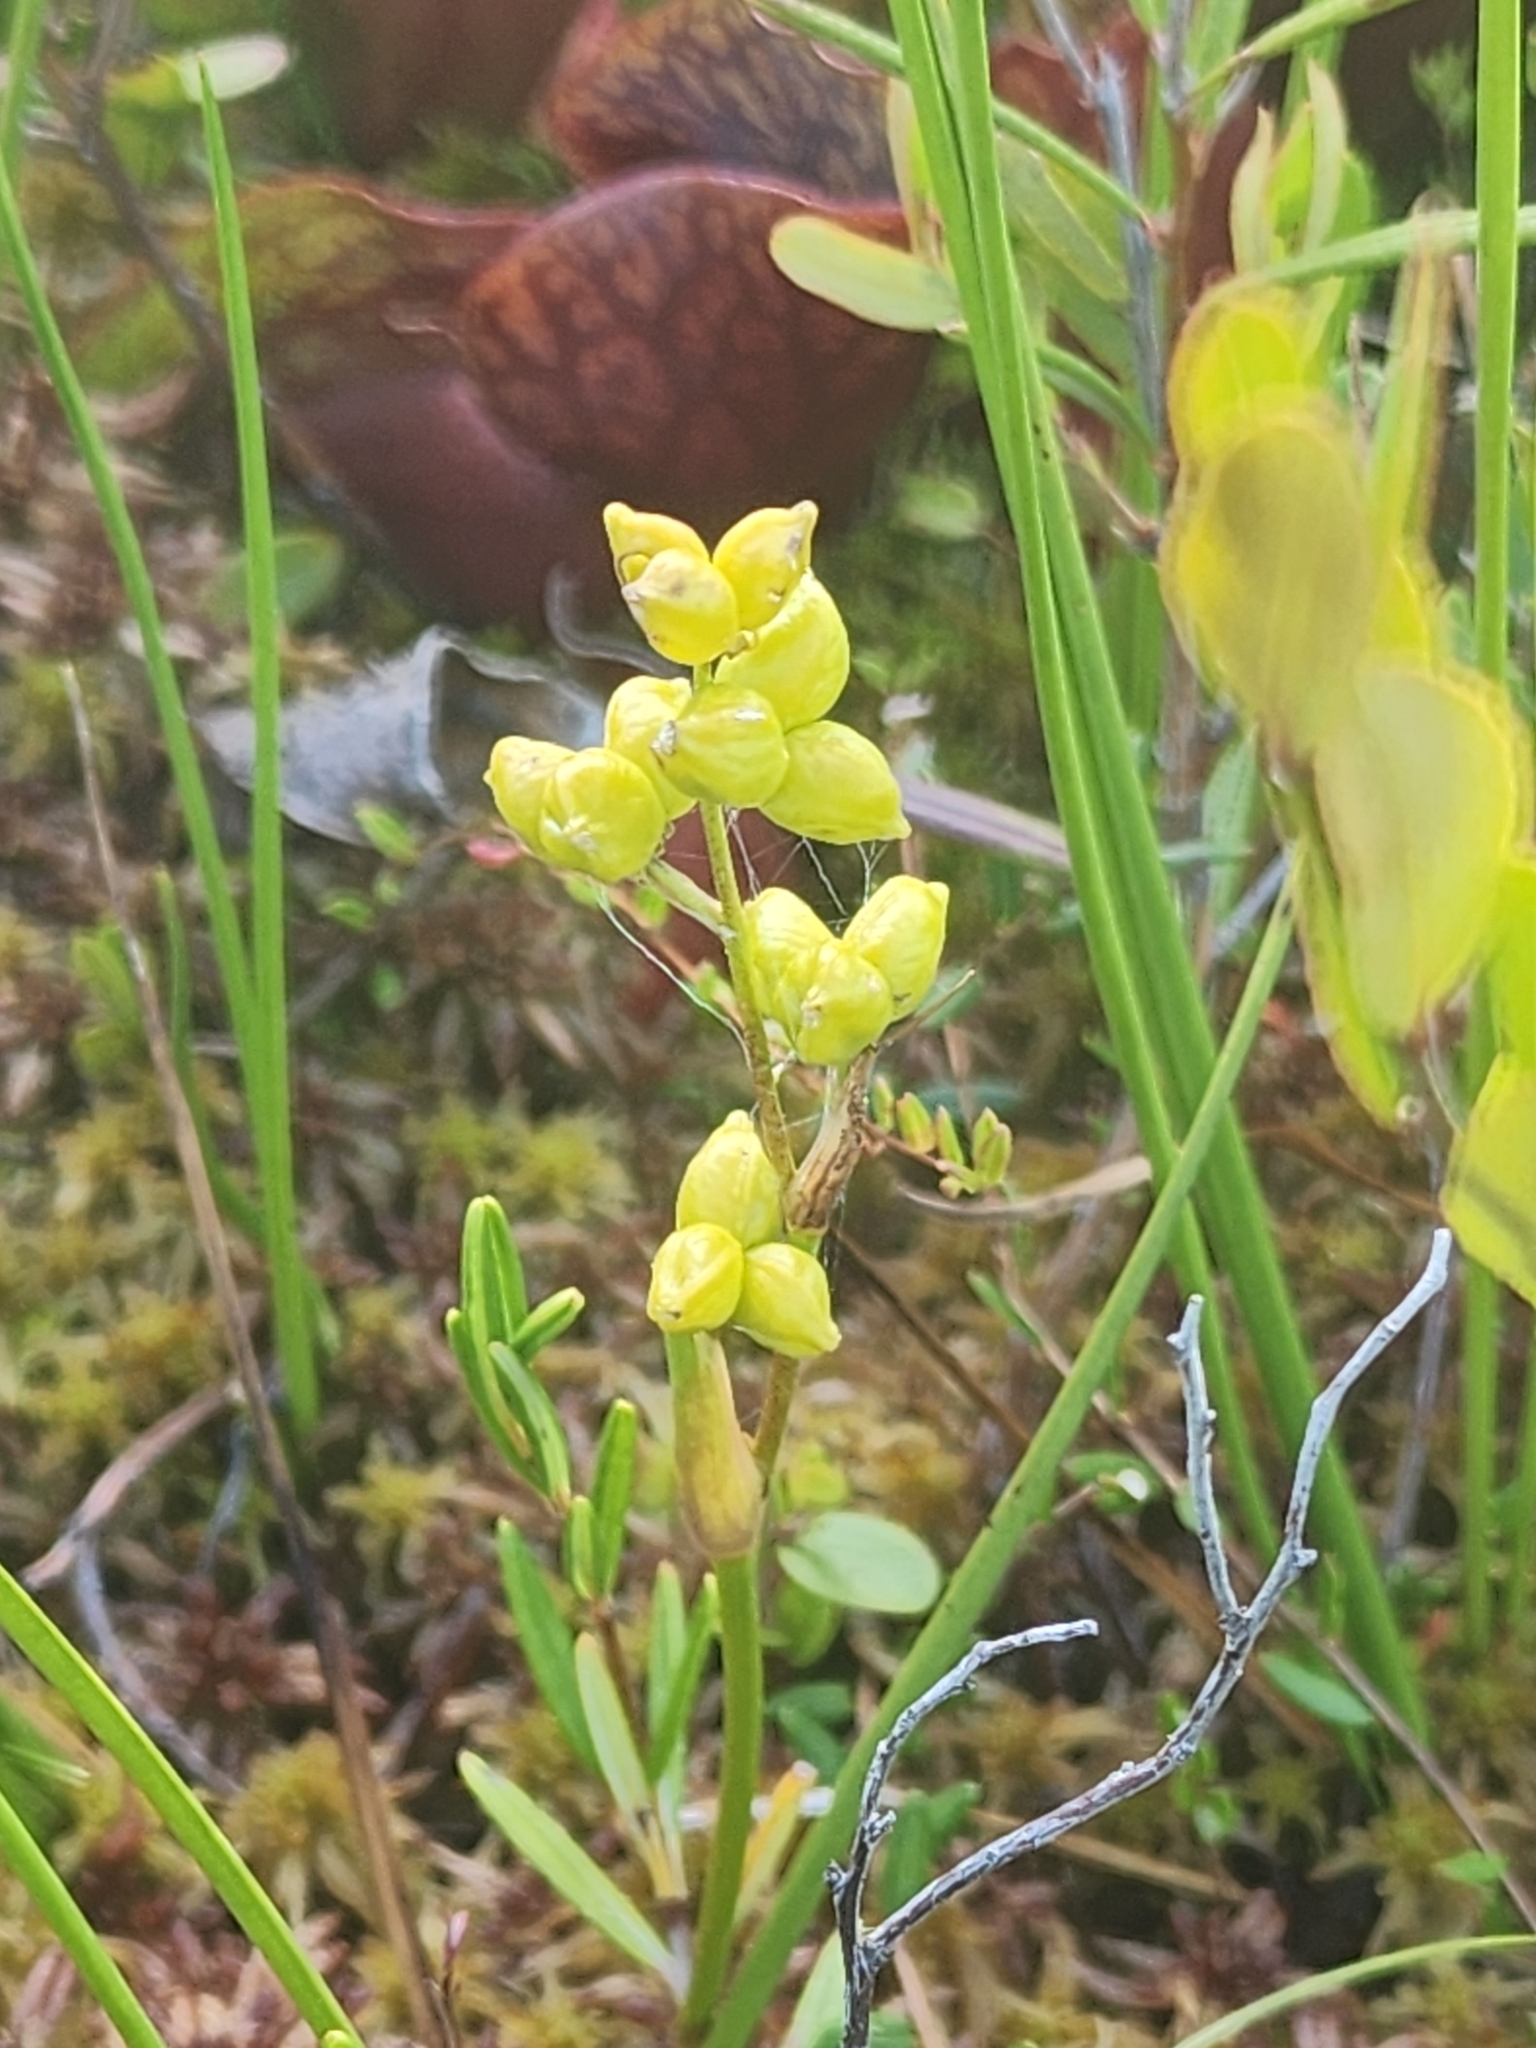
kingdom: Plantae
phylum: Tracheophyta
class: Liliopsida
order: Alismatales
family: Scheuchzeriaceae
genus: Scheuchzeria
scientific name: Scheuchzeria palustris
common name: Rannoch-rush
